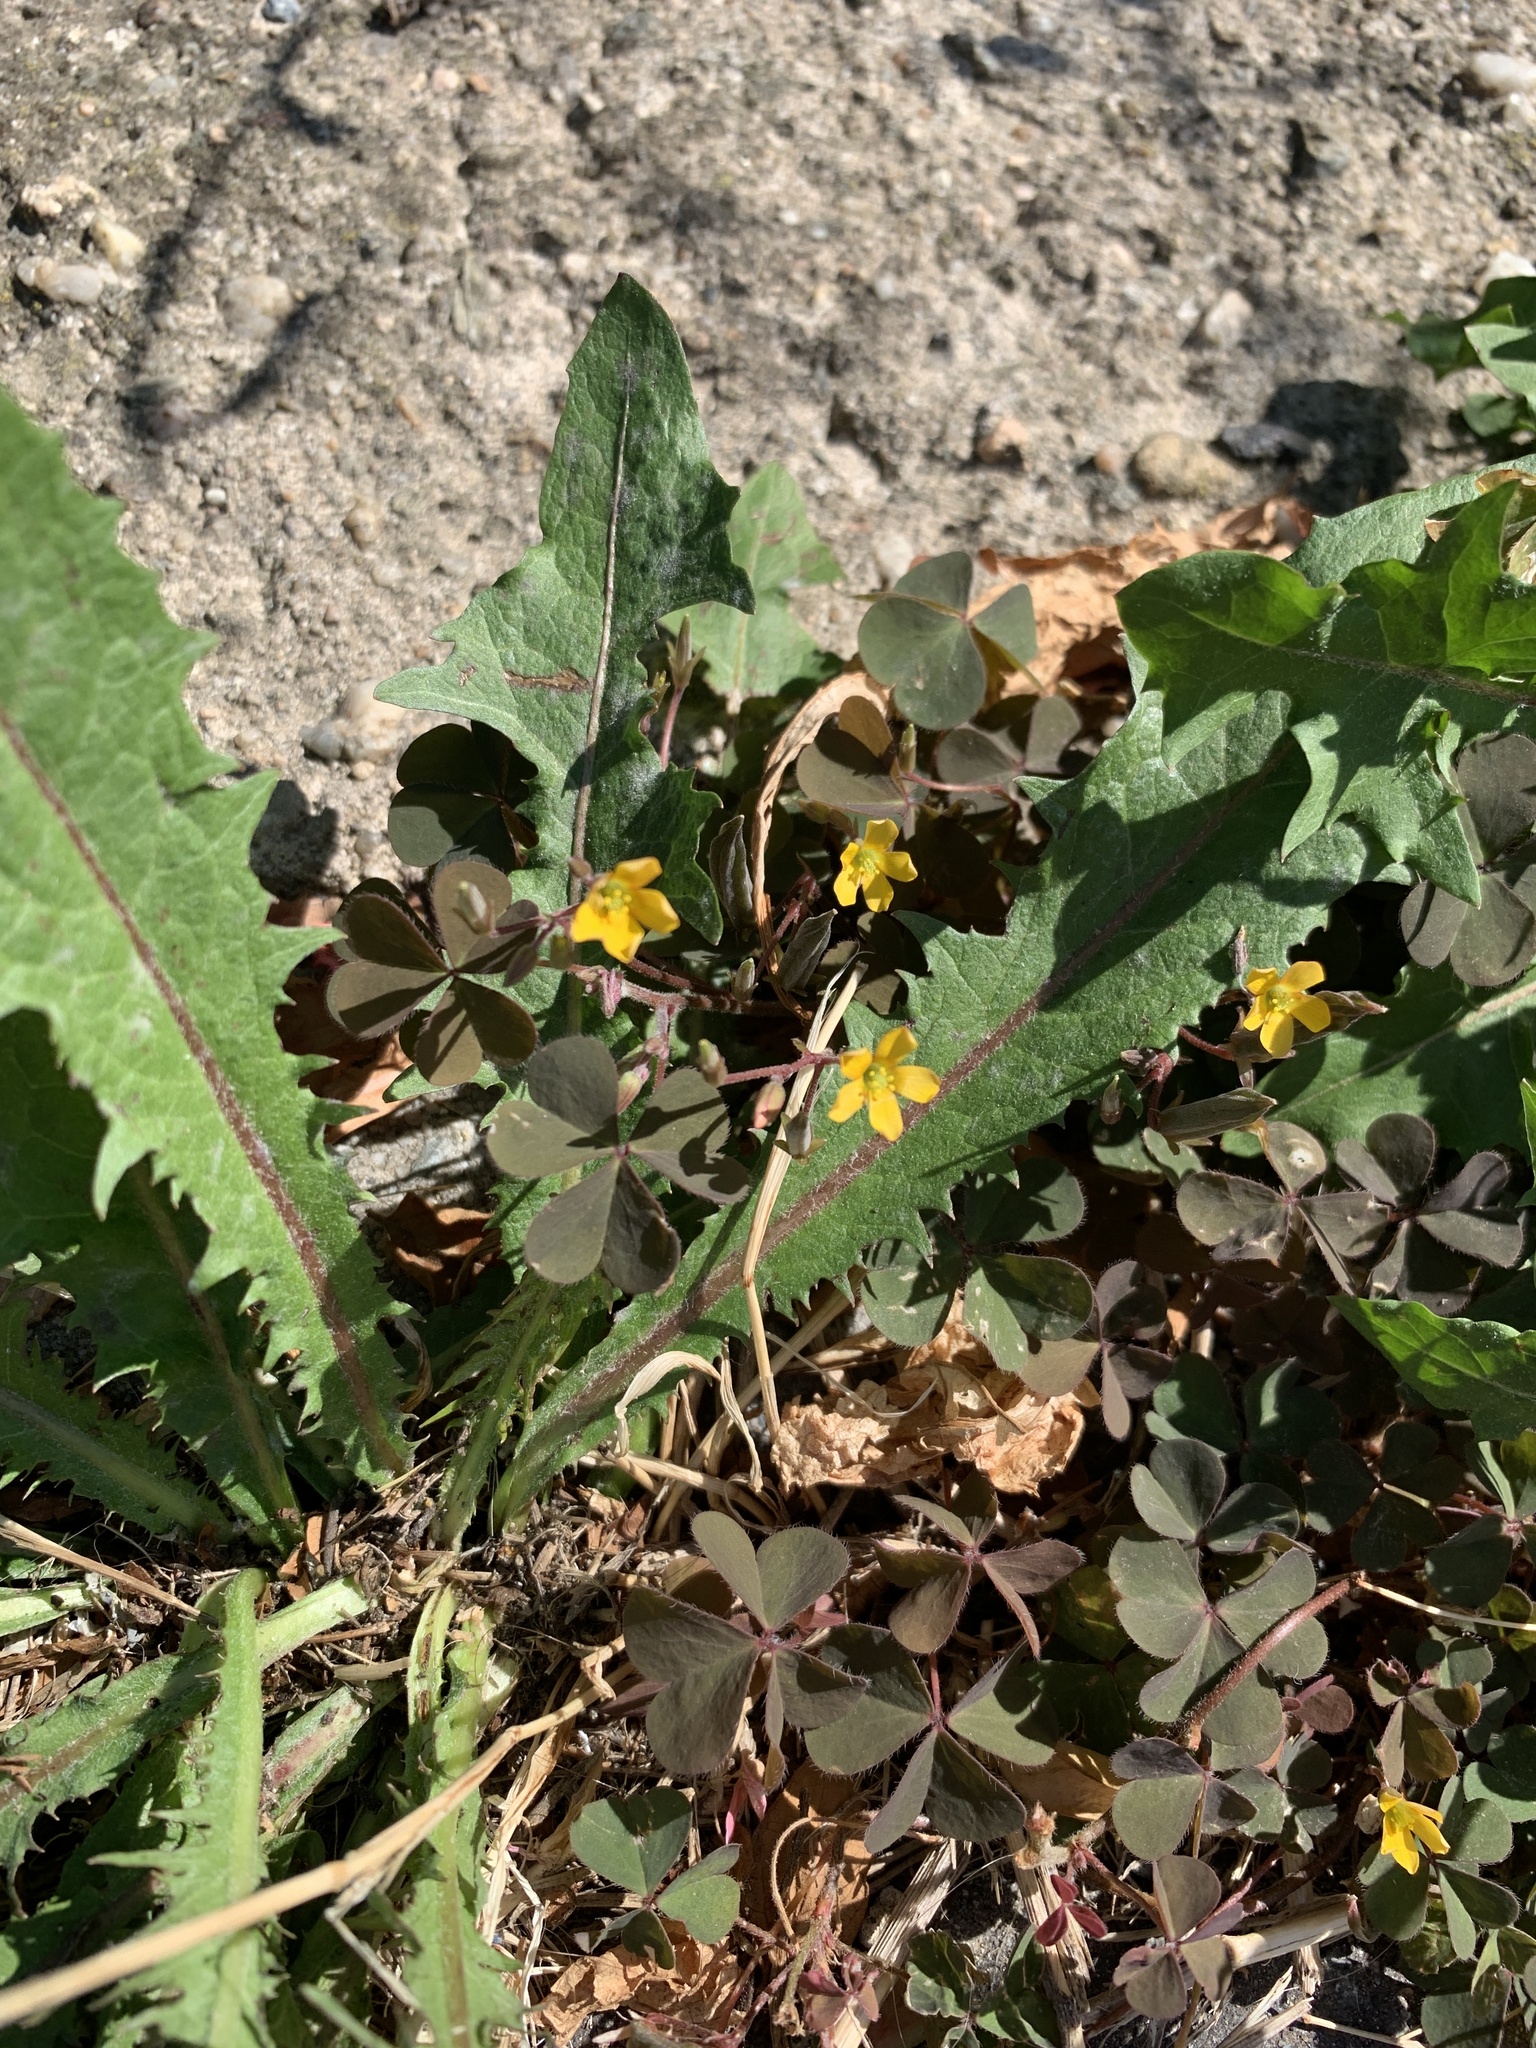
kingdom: Plantae
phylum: Tracheophyta
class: Magnoliopsida
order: Oxalidales
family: Oxalidaceae
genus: Oxalis
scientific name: Oxalis corniculata
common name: Procumbent yellow-sorrel
